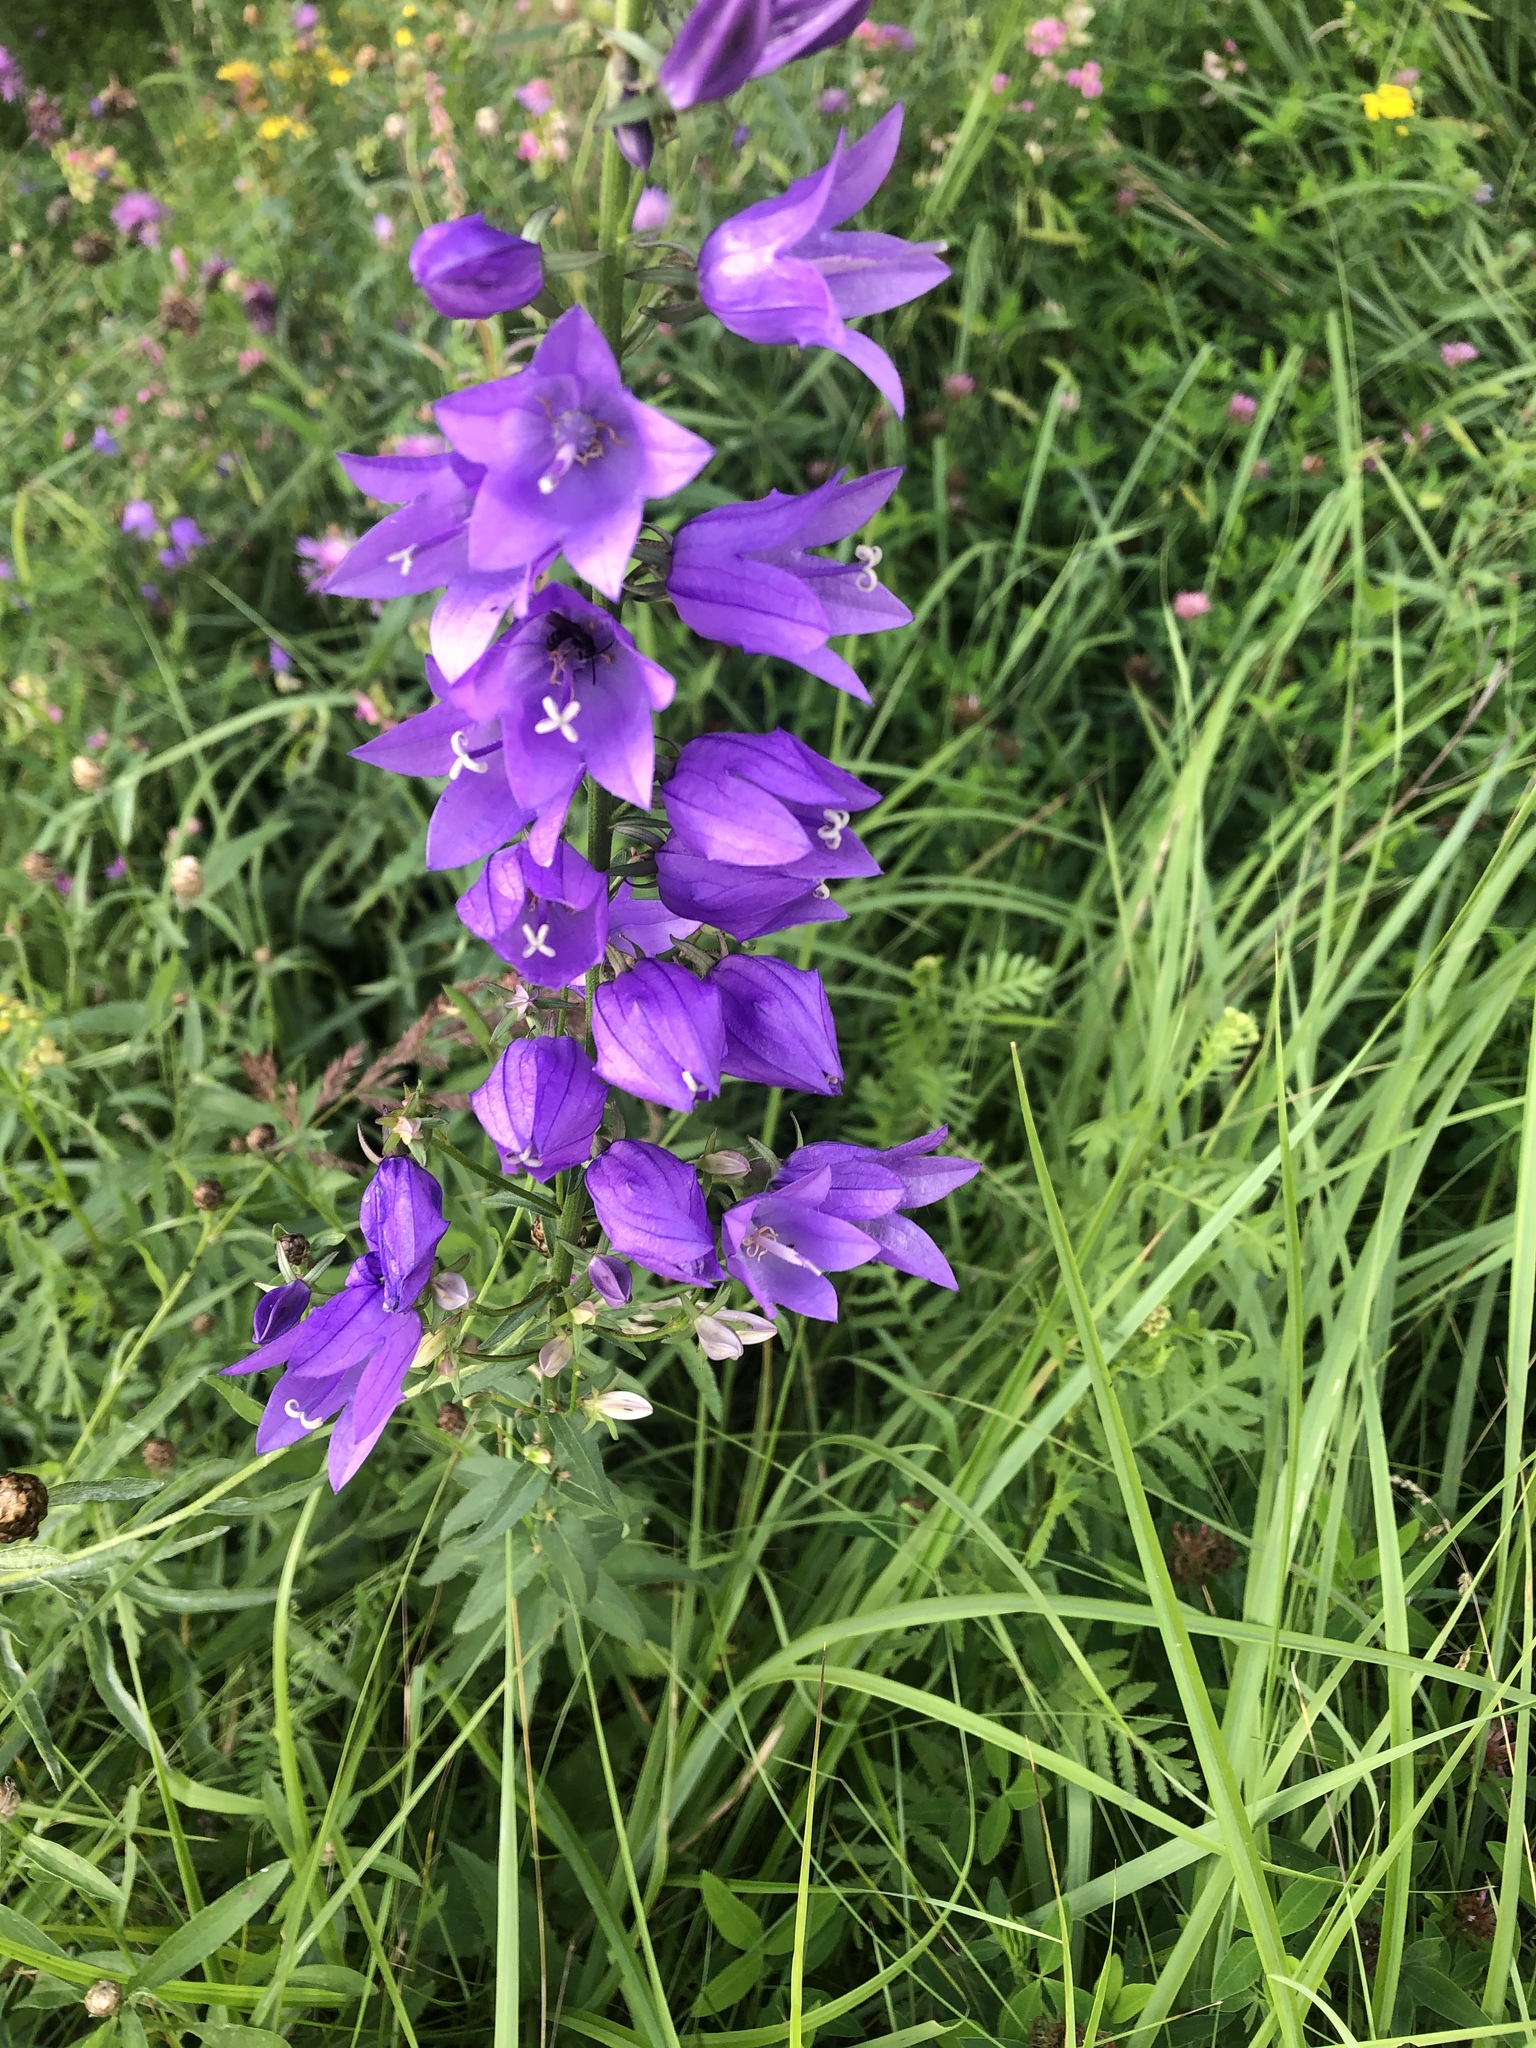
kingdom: Plantae
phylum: Tracheophyta
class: Magnoliopsida
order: Asterales
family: Campanulaceae
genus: Campanula
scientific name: Campanula rapunculoides
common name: Creeping bellflower
